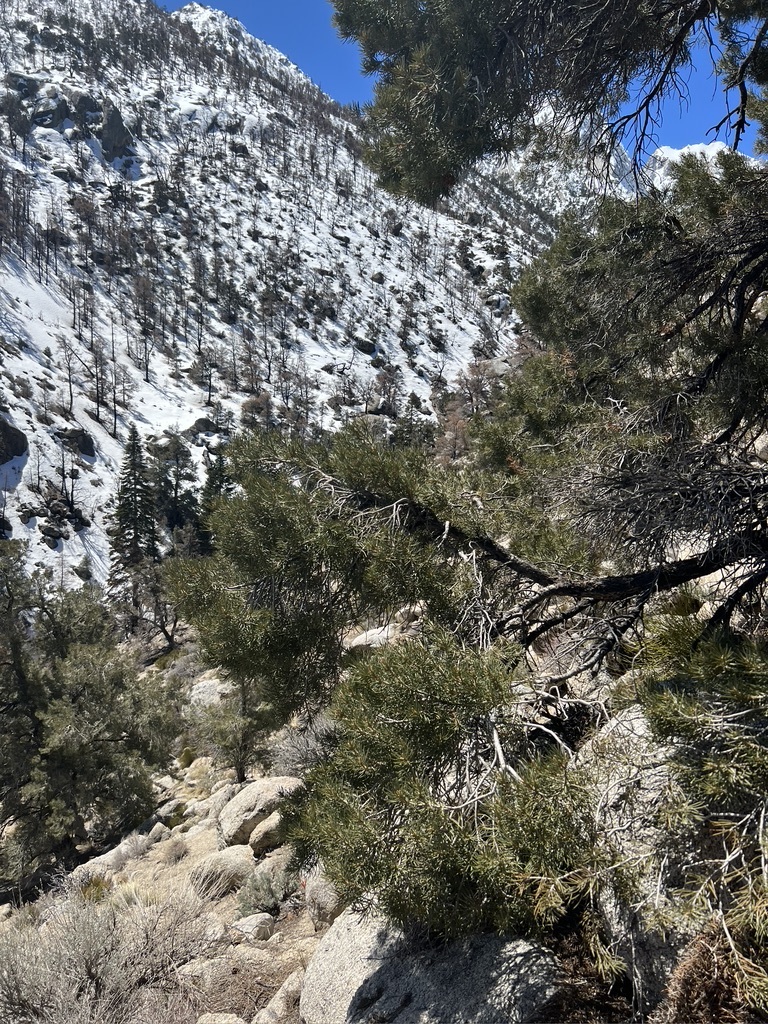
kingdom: Plantae
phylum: Tracheophyta
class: Pinopsida
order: Pinales
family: Pinaceae
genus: Pinus
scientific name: Pinus monophylla
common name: One-leaved nut pine
